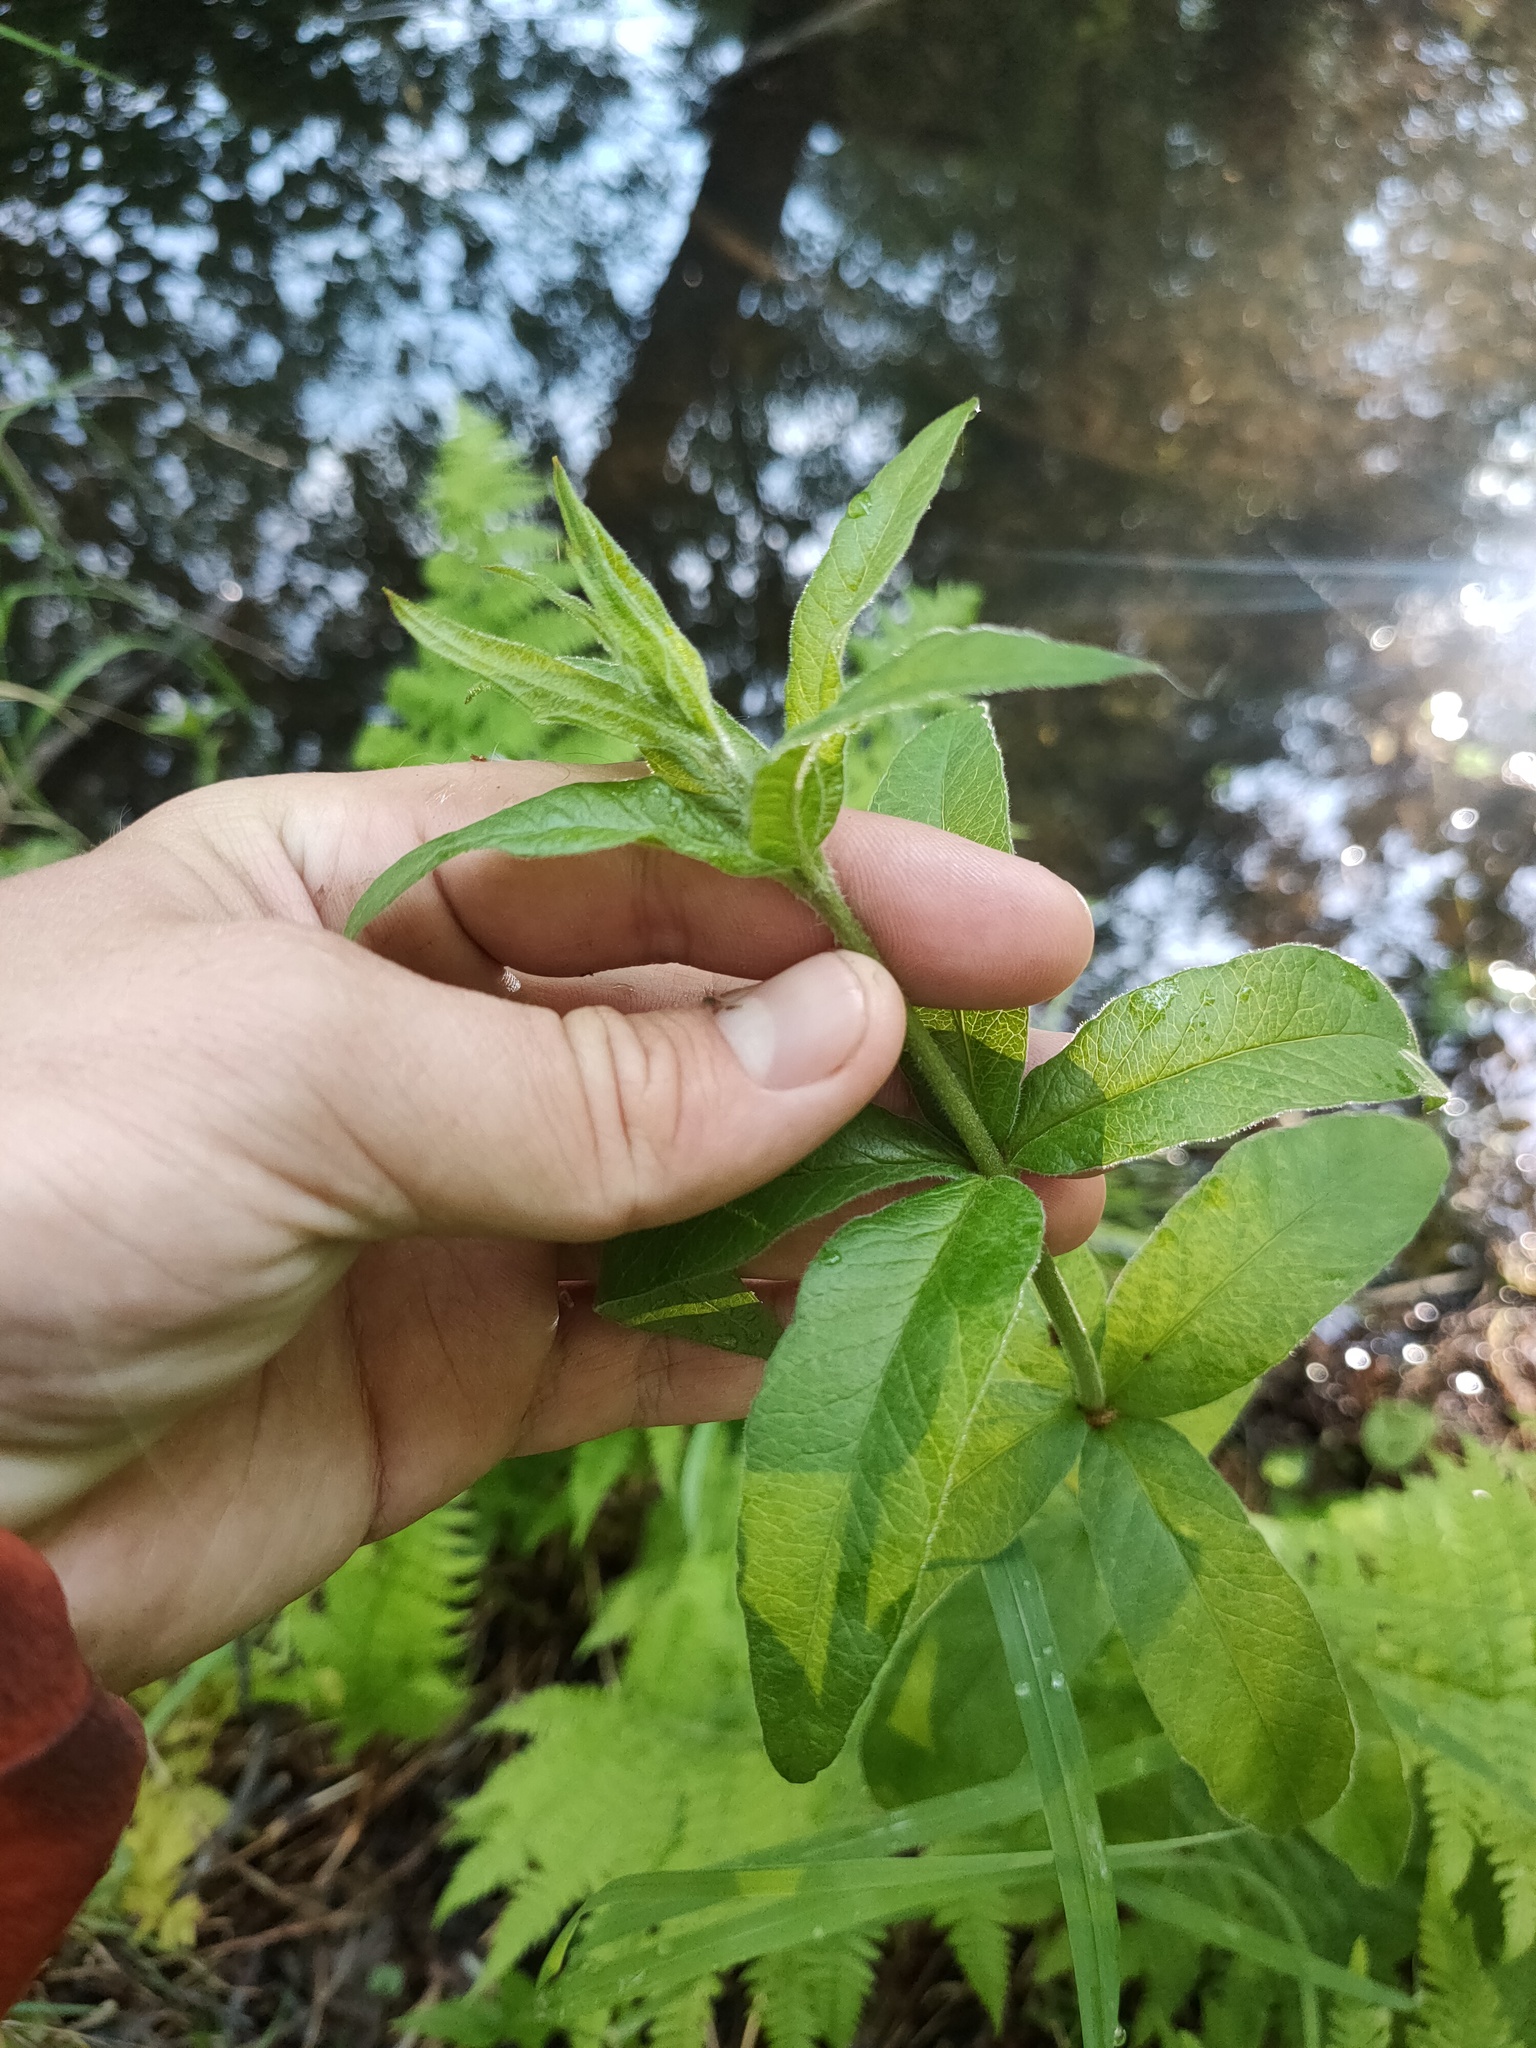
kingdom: Plantae
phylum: Tracheophyta
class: Magnoliopsida
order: Ericales
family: Primulaceae
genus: Lysimachia
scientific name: Lysimachia vulgaris
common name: Yellow loosestrife
